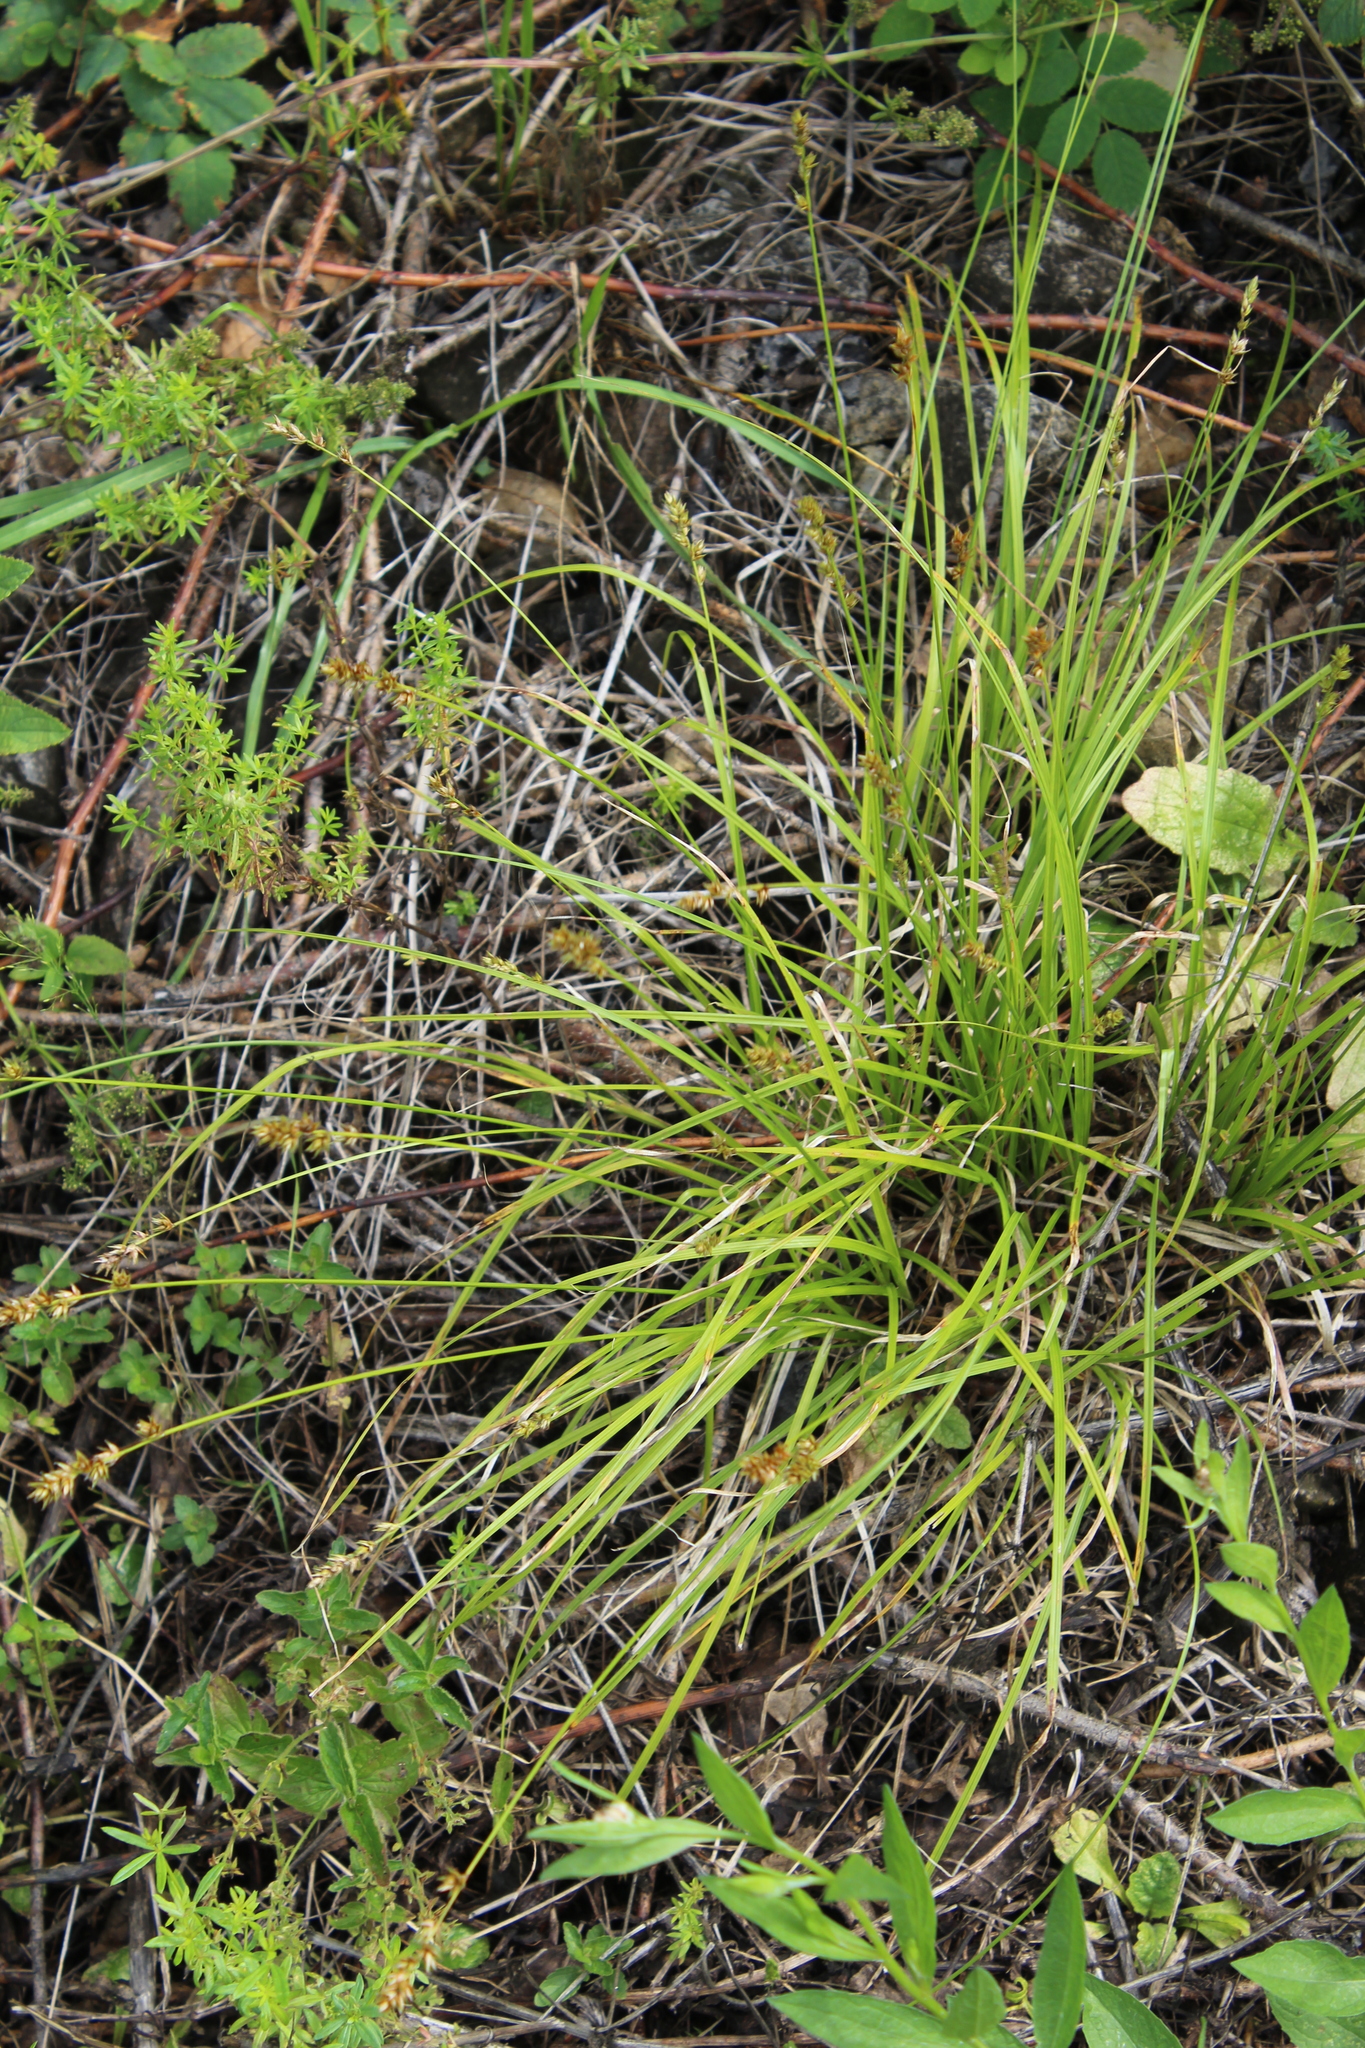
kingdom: Plantae
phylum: Tracheophyta
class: Liliopsida
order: Poales
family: Cyperaceae
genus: Carex
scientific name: Carex spicata
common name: Spiked sedge
